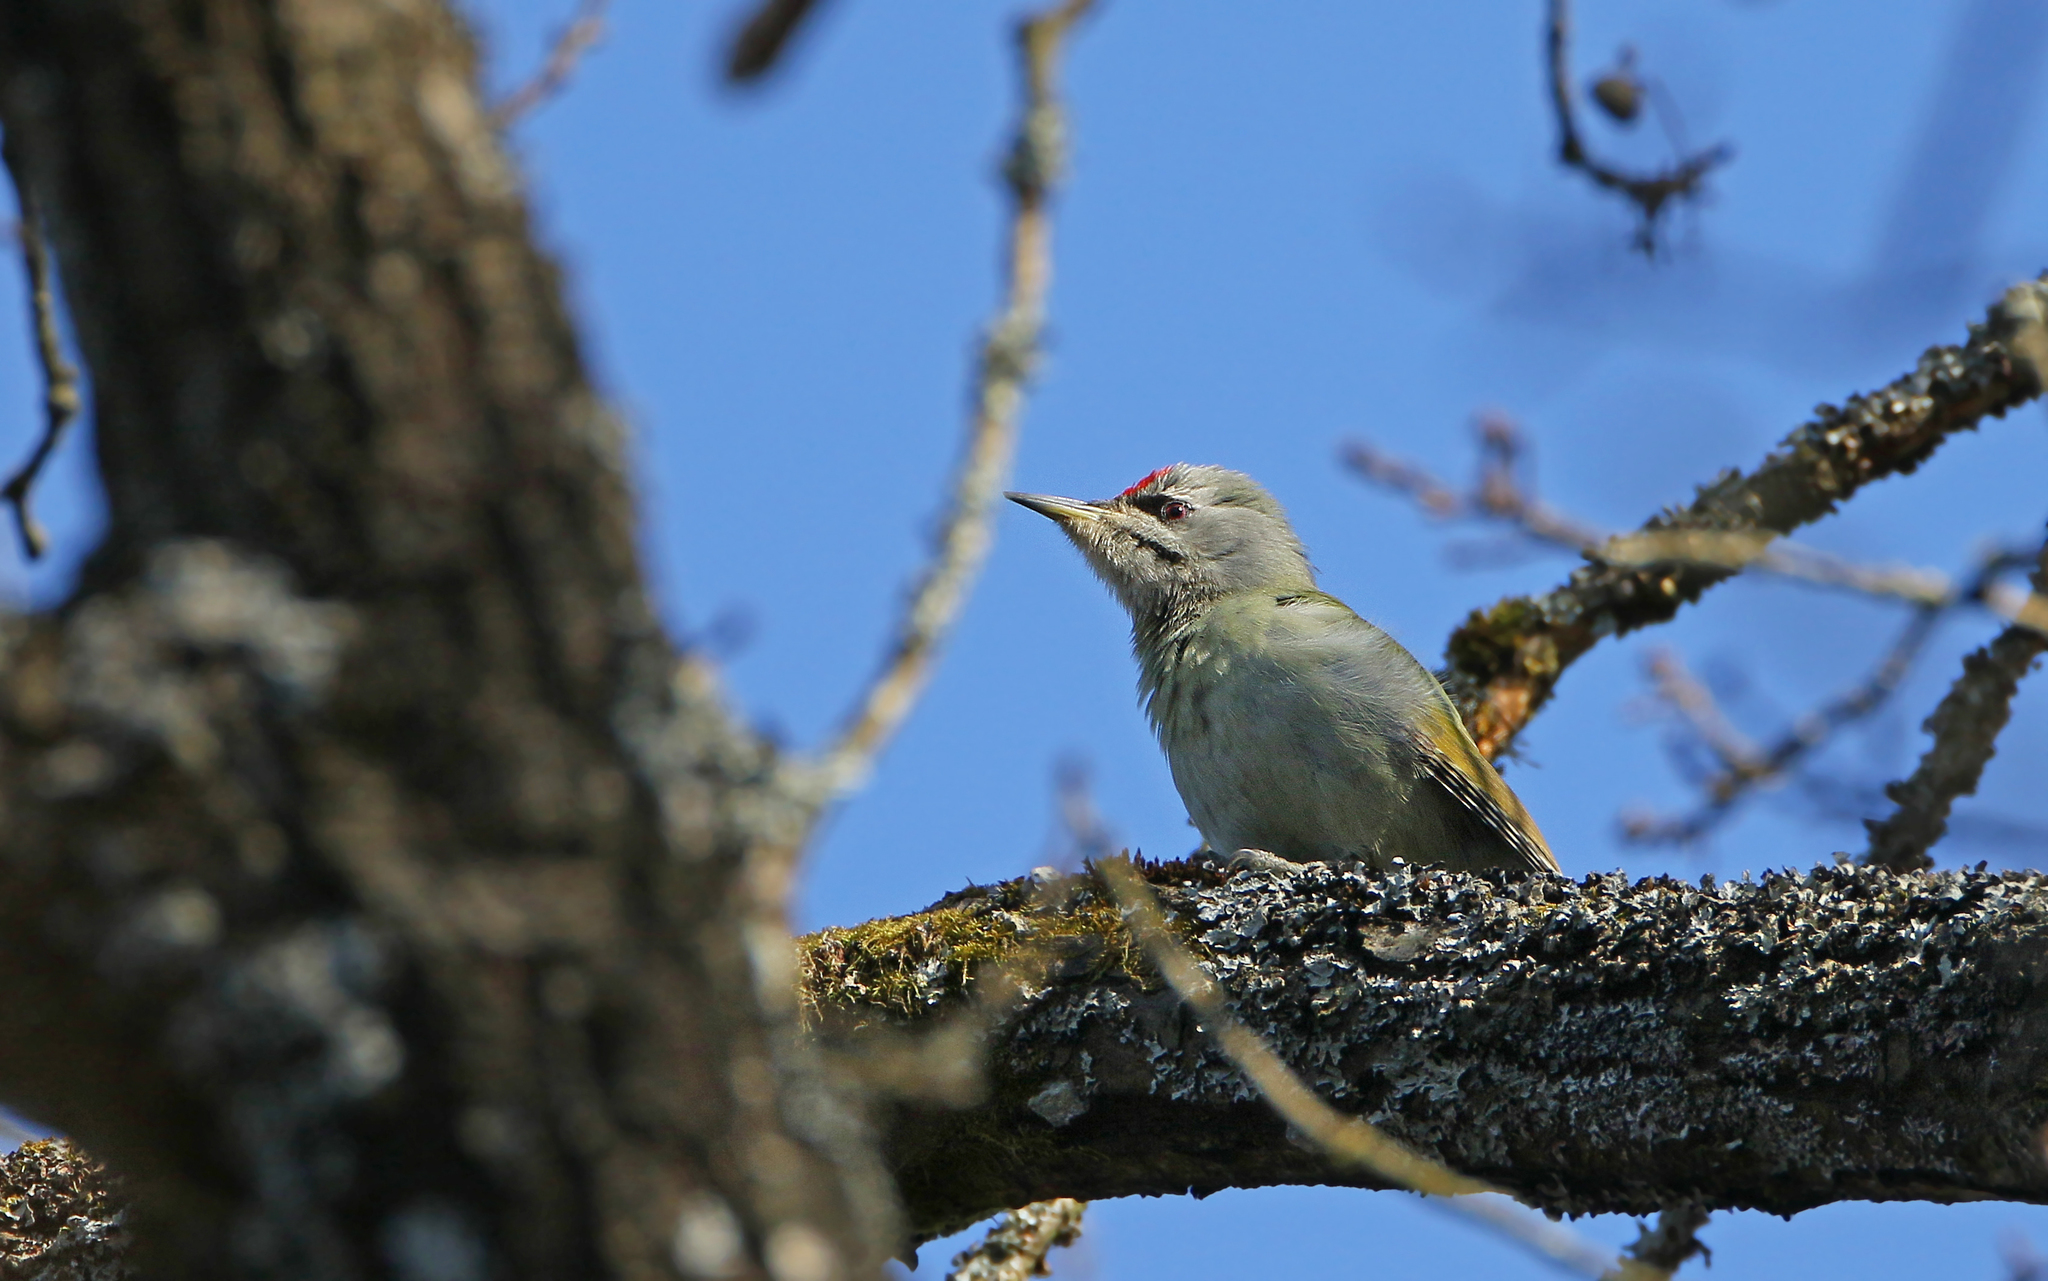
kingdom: Animalia
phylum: Chordata
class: Aves
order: Piciformes
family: Picidae
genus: Picus
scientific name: Picus canus
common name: Grey-headed woodpecker
